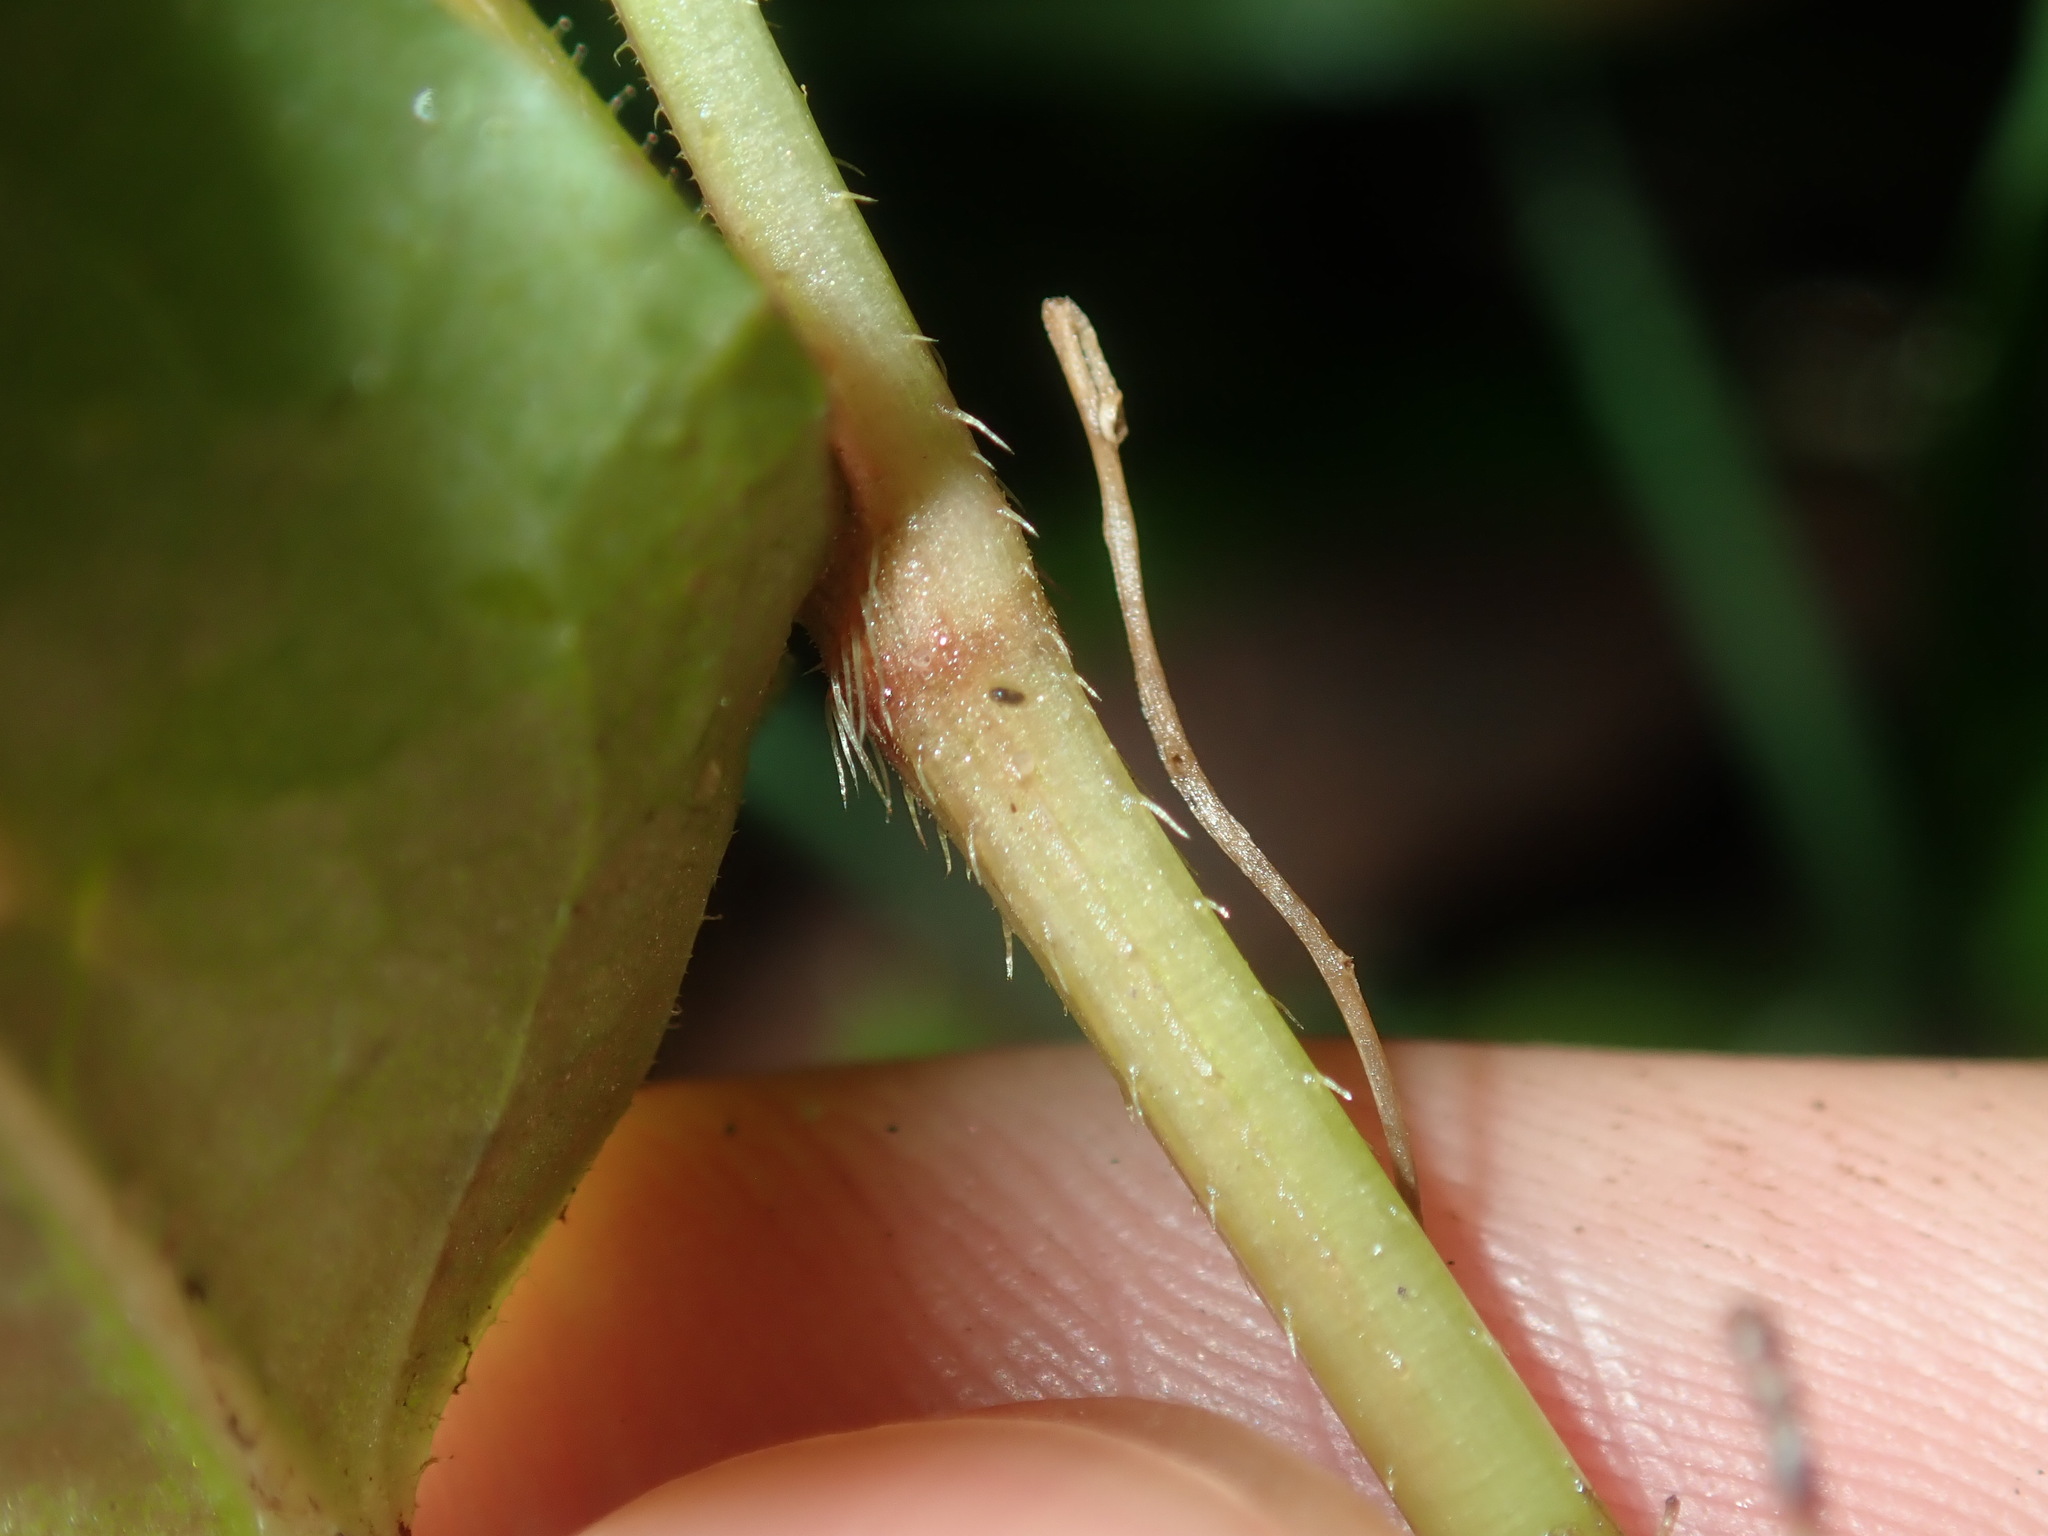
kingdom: Plantae
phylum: Tracheophyta
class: Magnoliopsida
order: Caryophyllales
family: Polygonaceae
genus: Persicaria
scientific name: Persicaria strigosa
